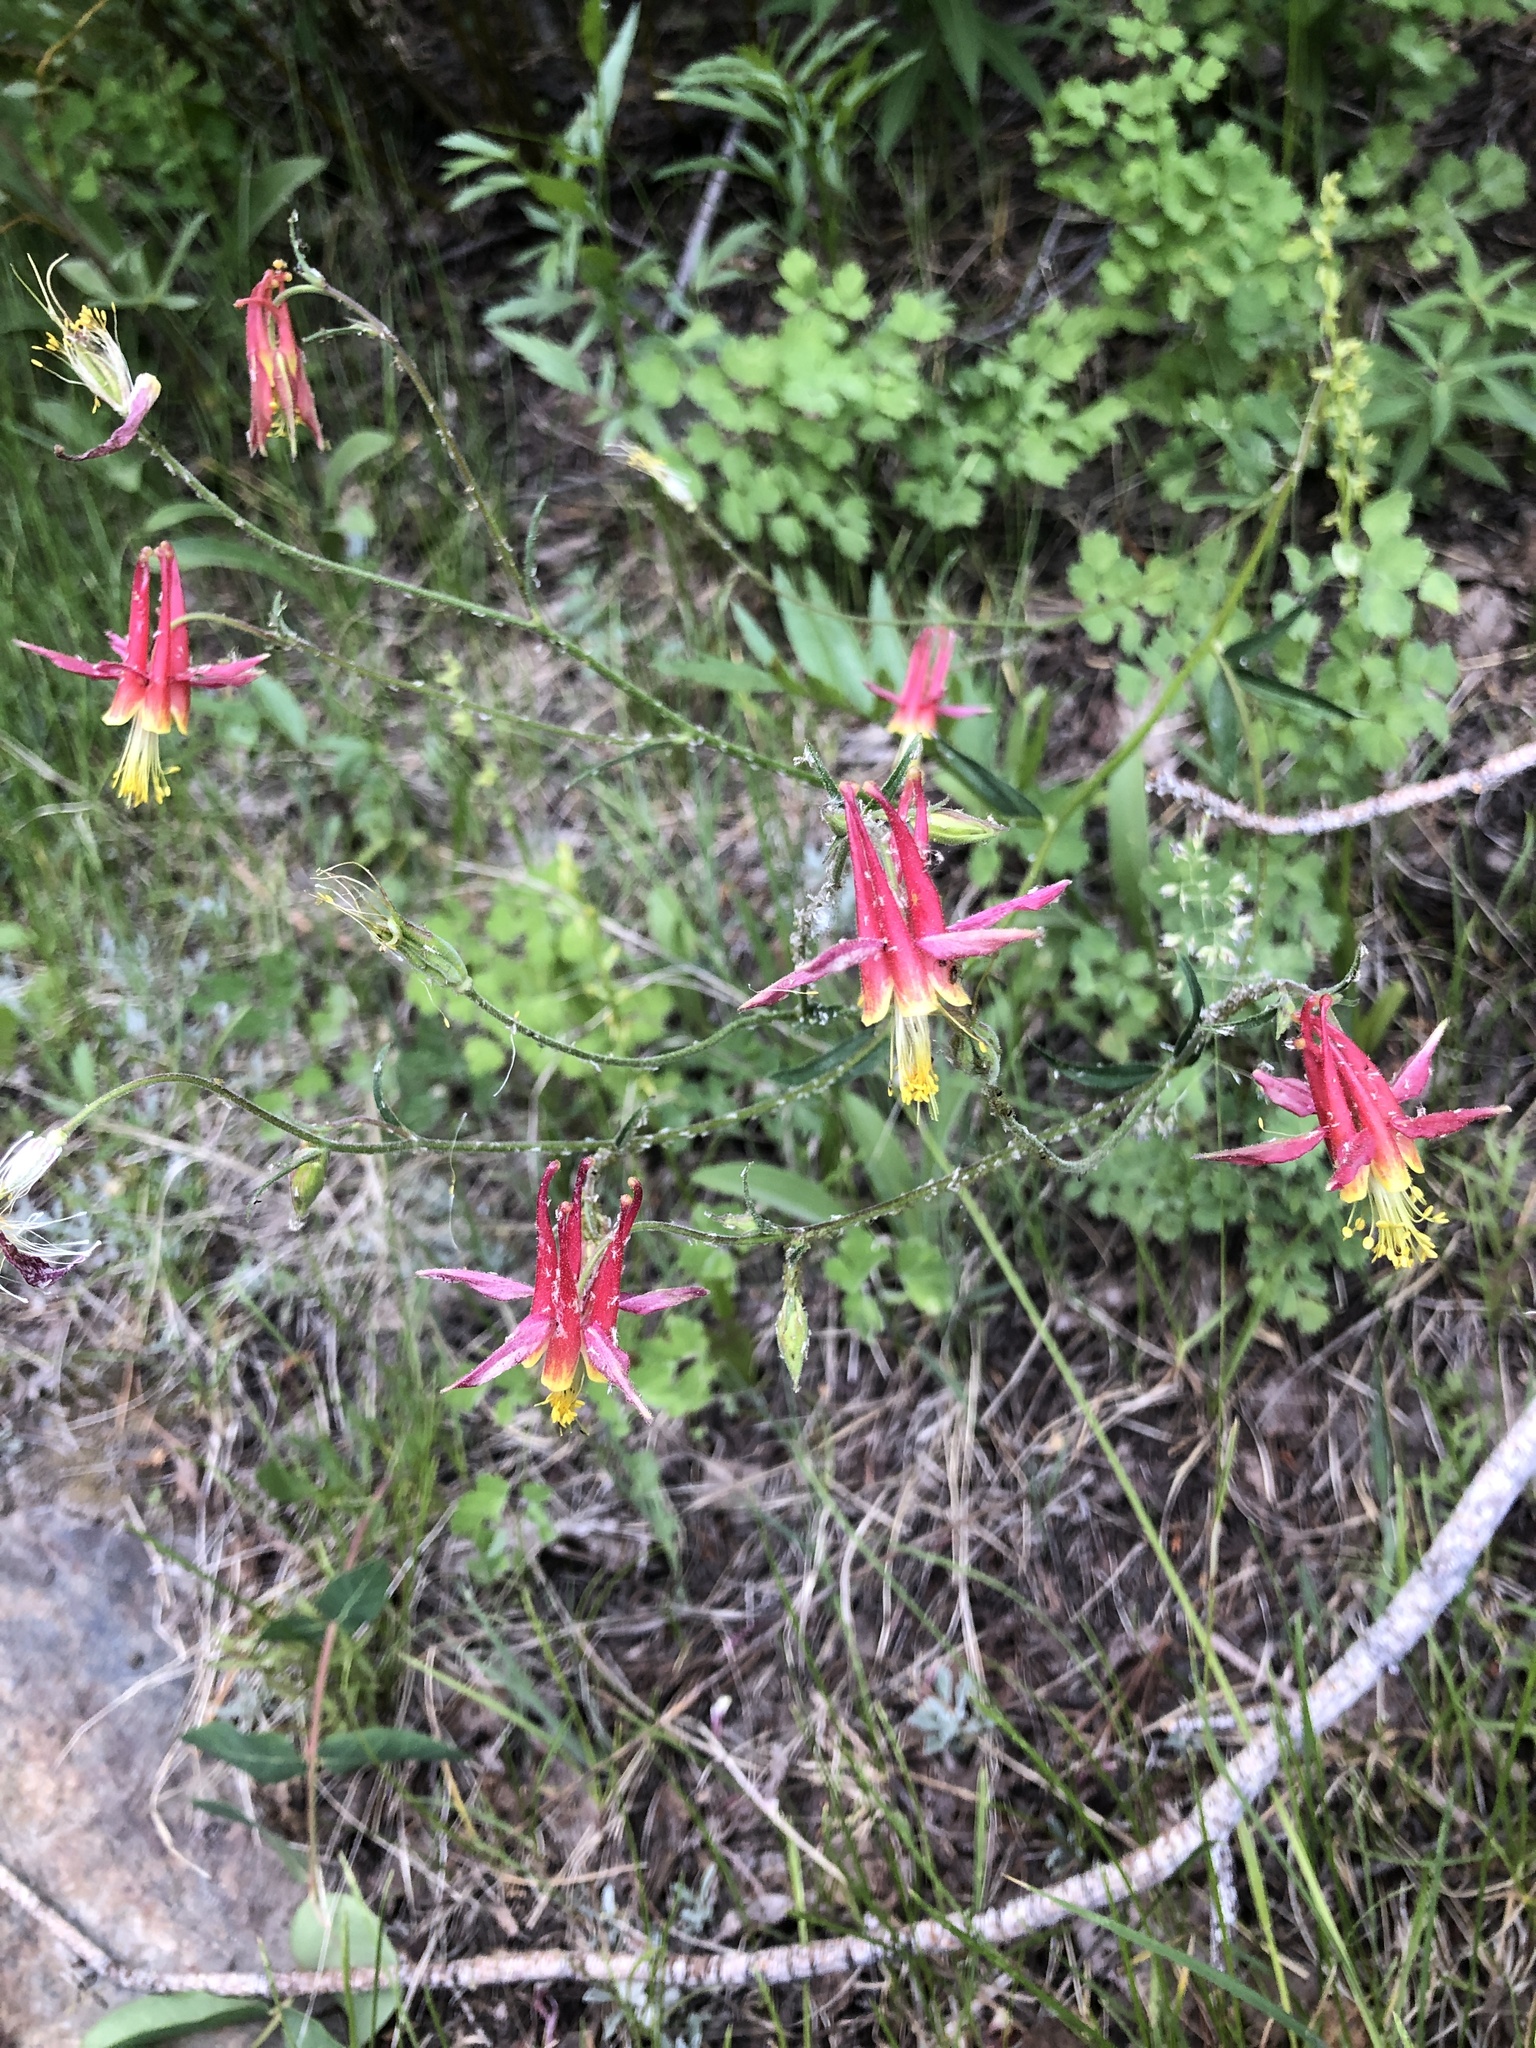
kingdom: Plantae
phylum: Tracheophyta
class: Magnoliopsida
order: Ranunculales
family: Ranunculaceae
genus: Aquilegia
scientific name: Aquilegia formosa
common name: Sitka columbine
